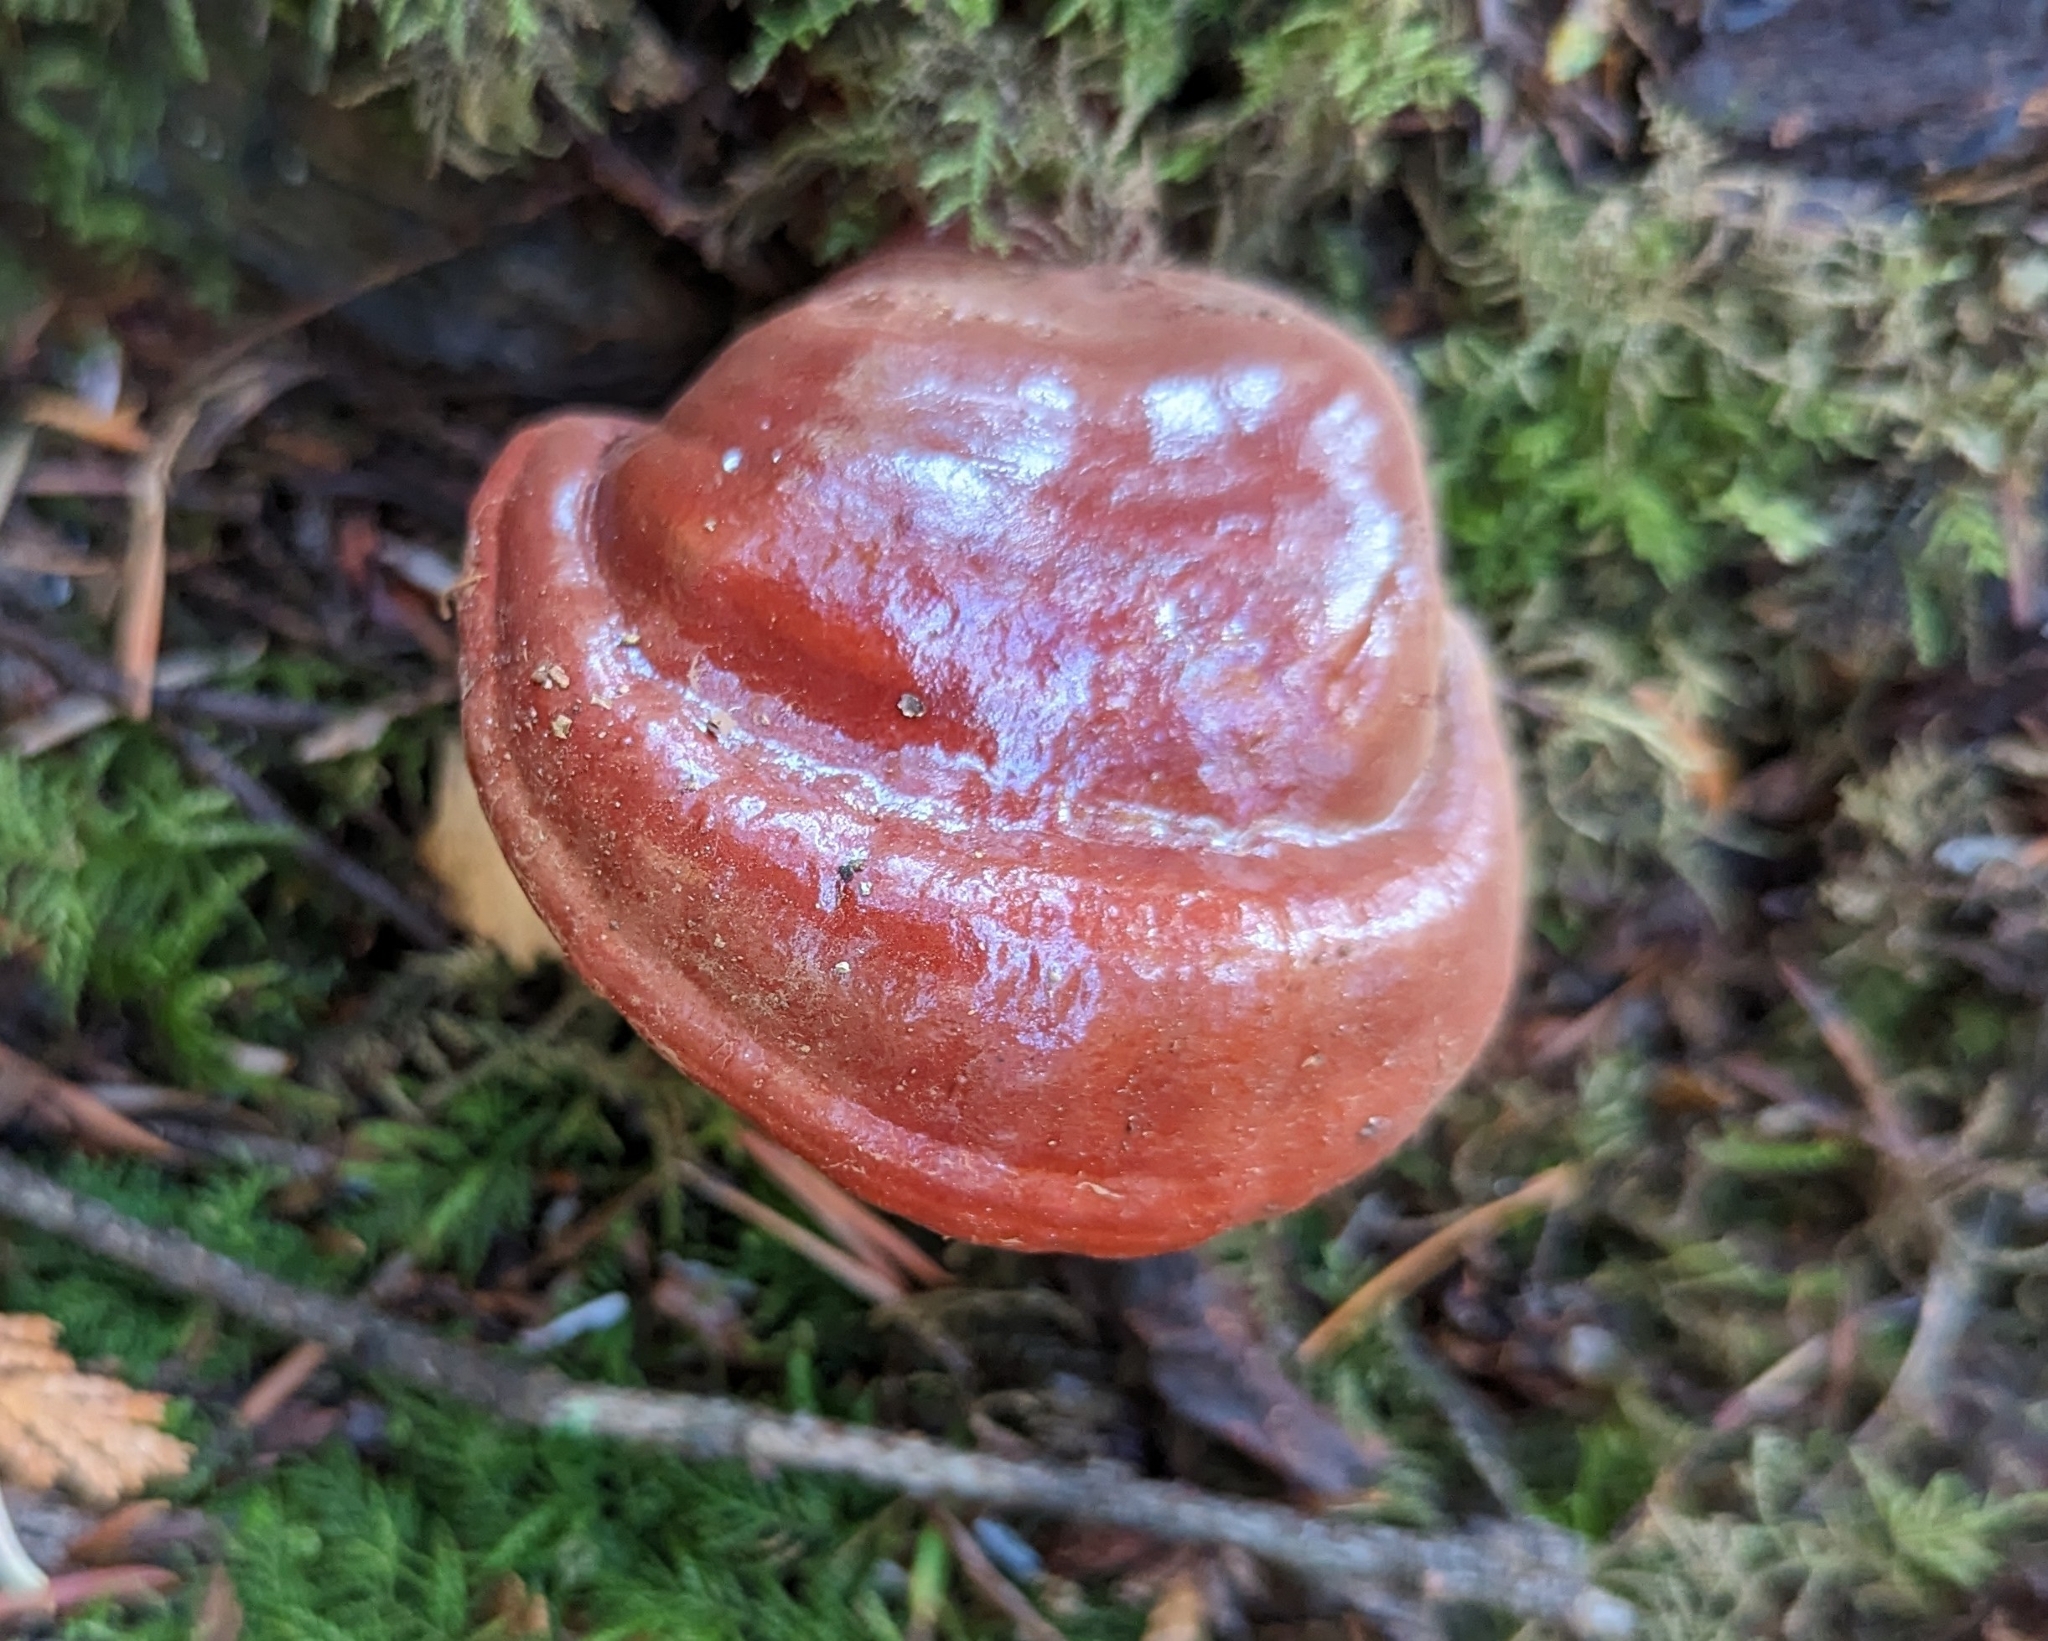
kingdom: Fungi
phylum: Basidiomycota
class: Agaricomycetes
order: Polyporales
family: Polyporaceae
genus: Ganoderma
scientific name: Ganoderma oregonense
